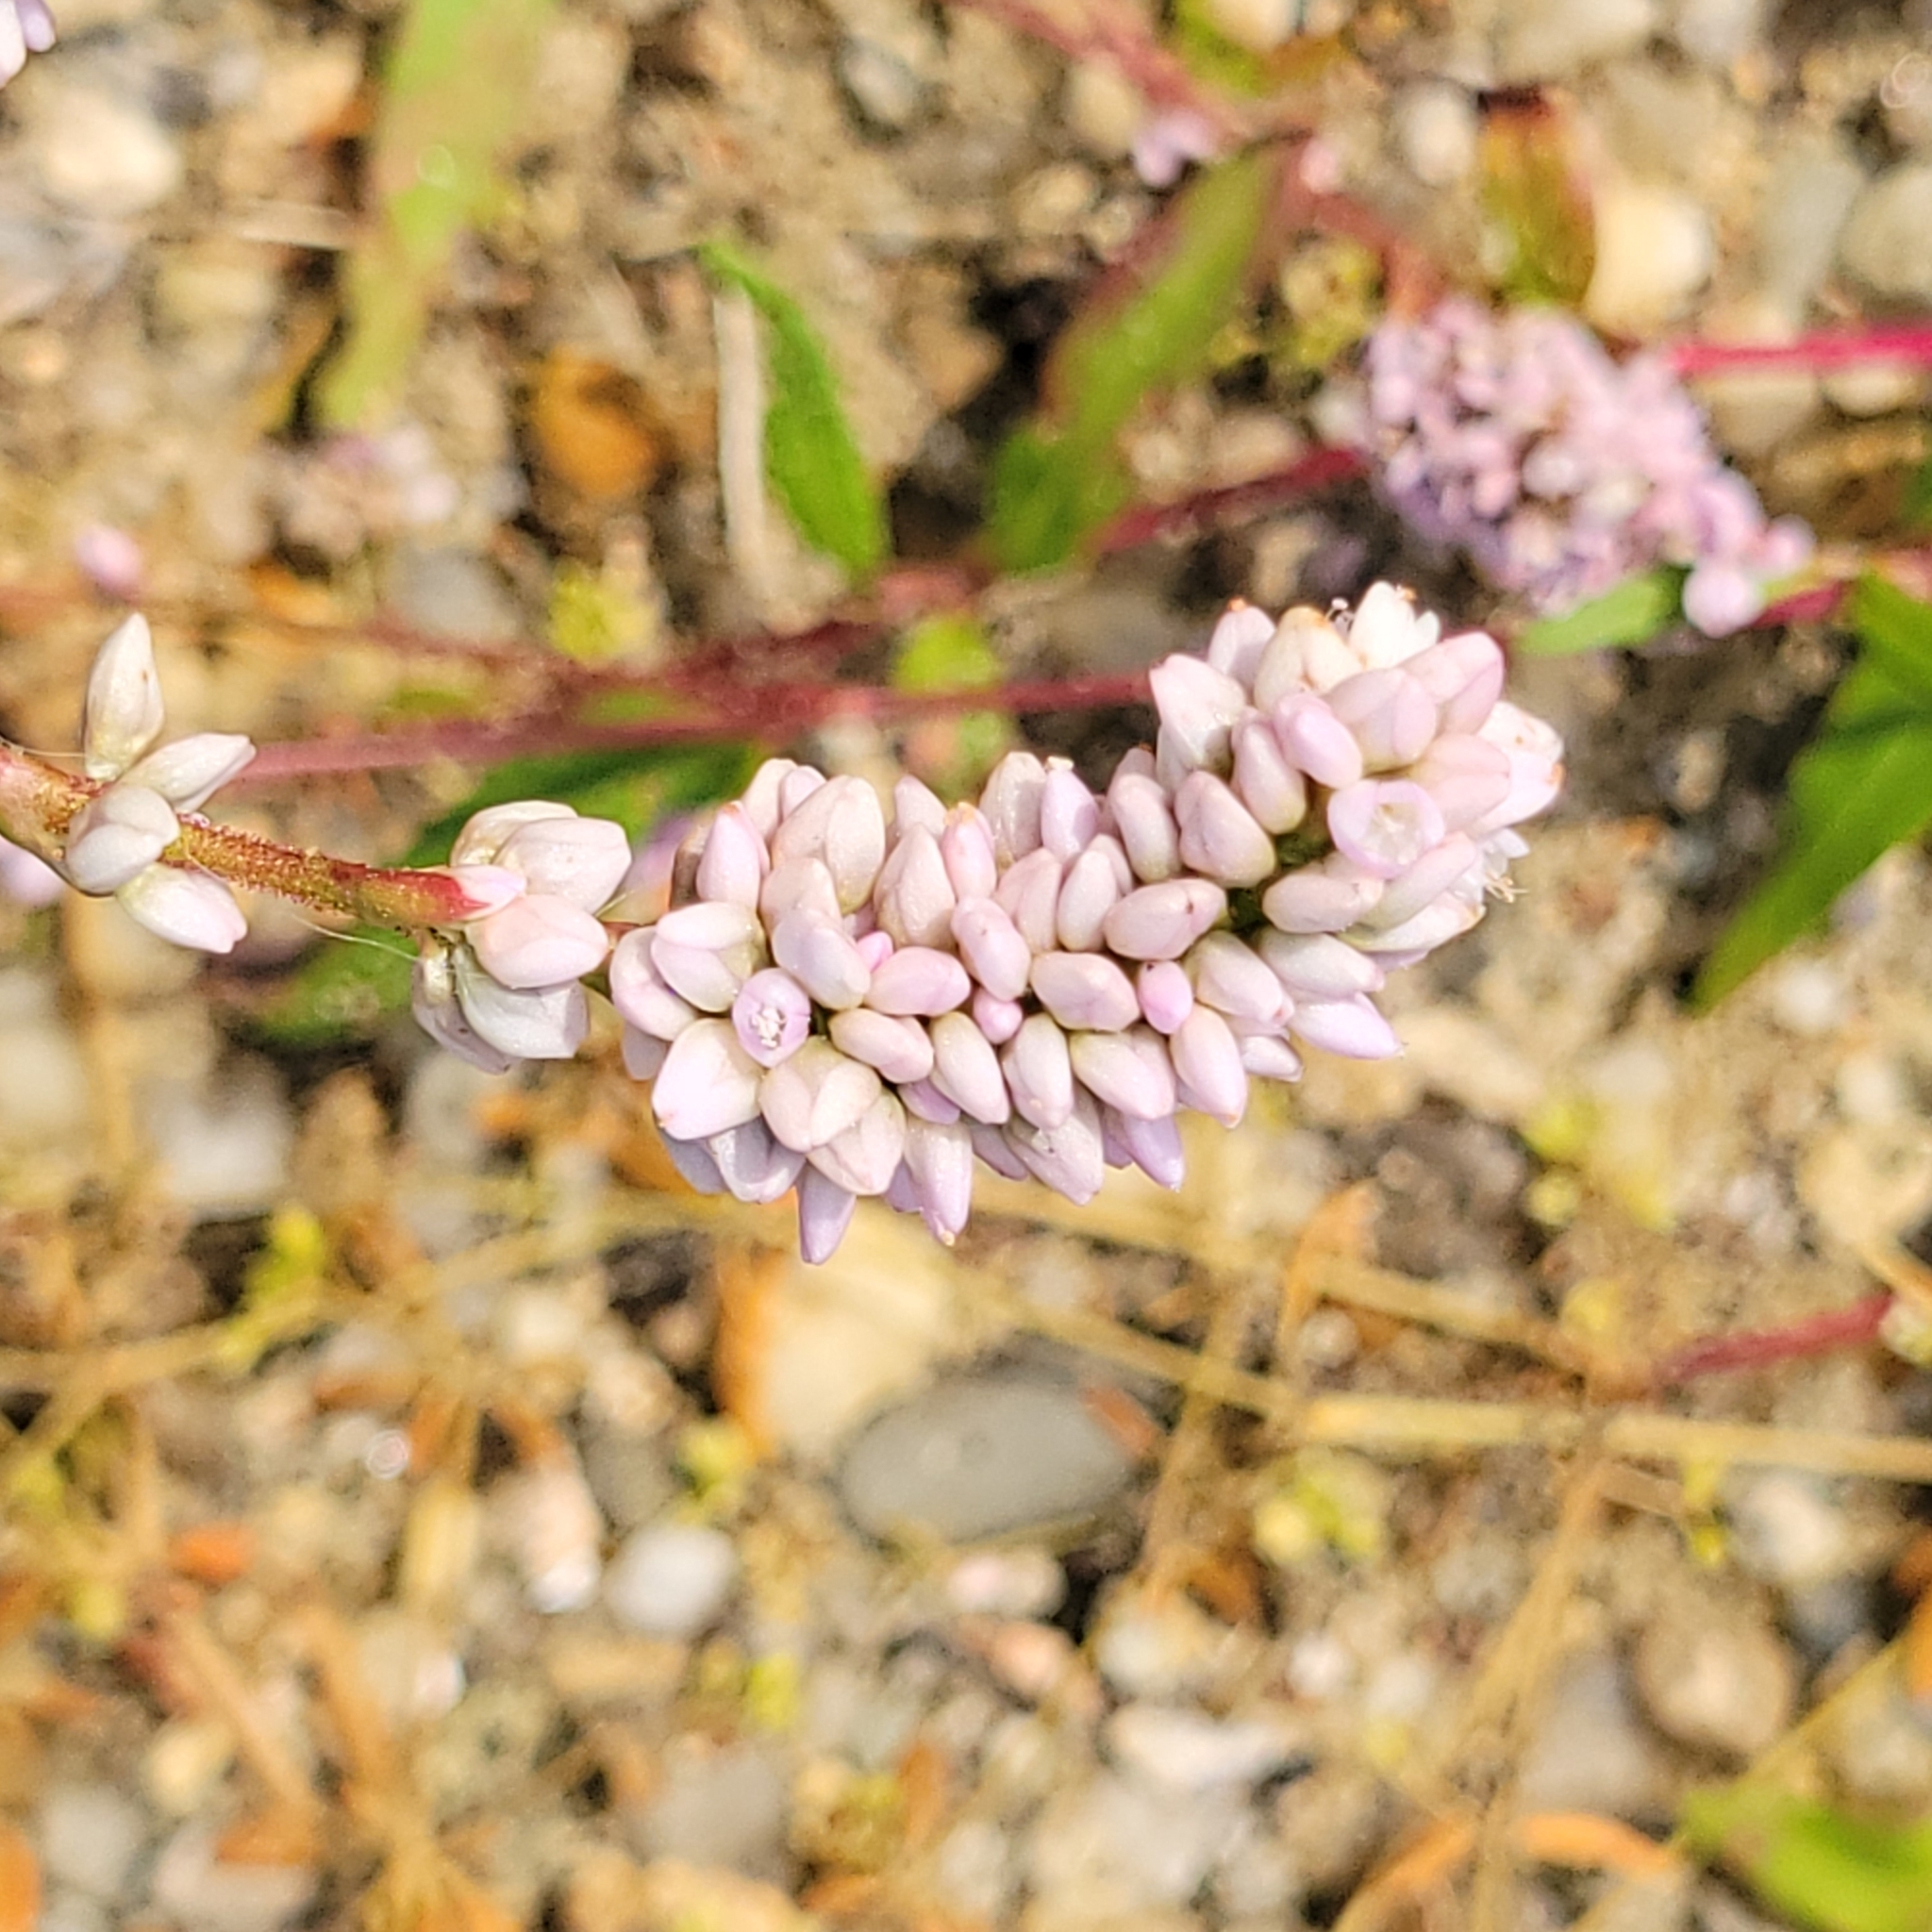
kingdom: Plantae
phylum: Tracheophyta
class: Magnoliopsida
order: Caryophyllales
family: Polygonaceae
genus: Persicaria
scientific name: Persicaria pensylvanica
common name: Pinkweed
